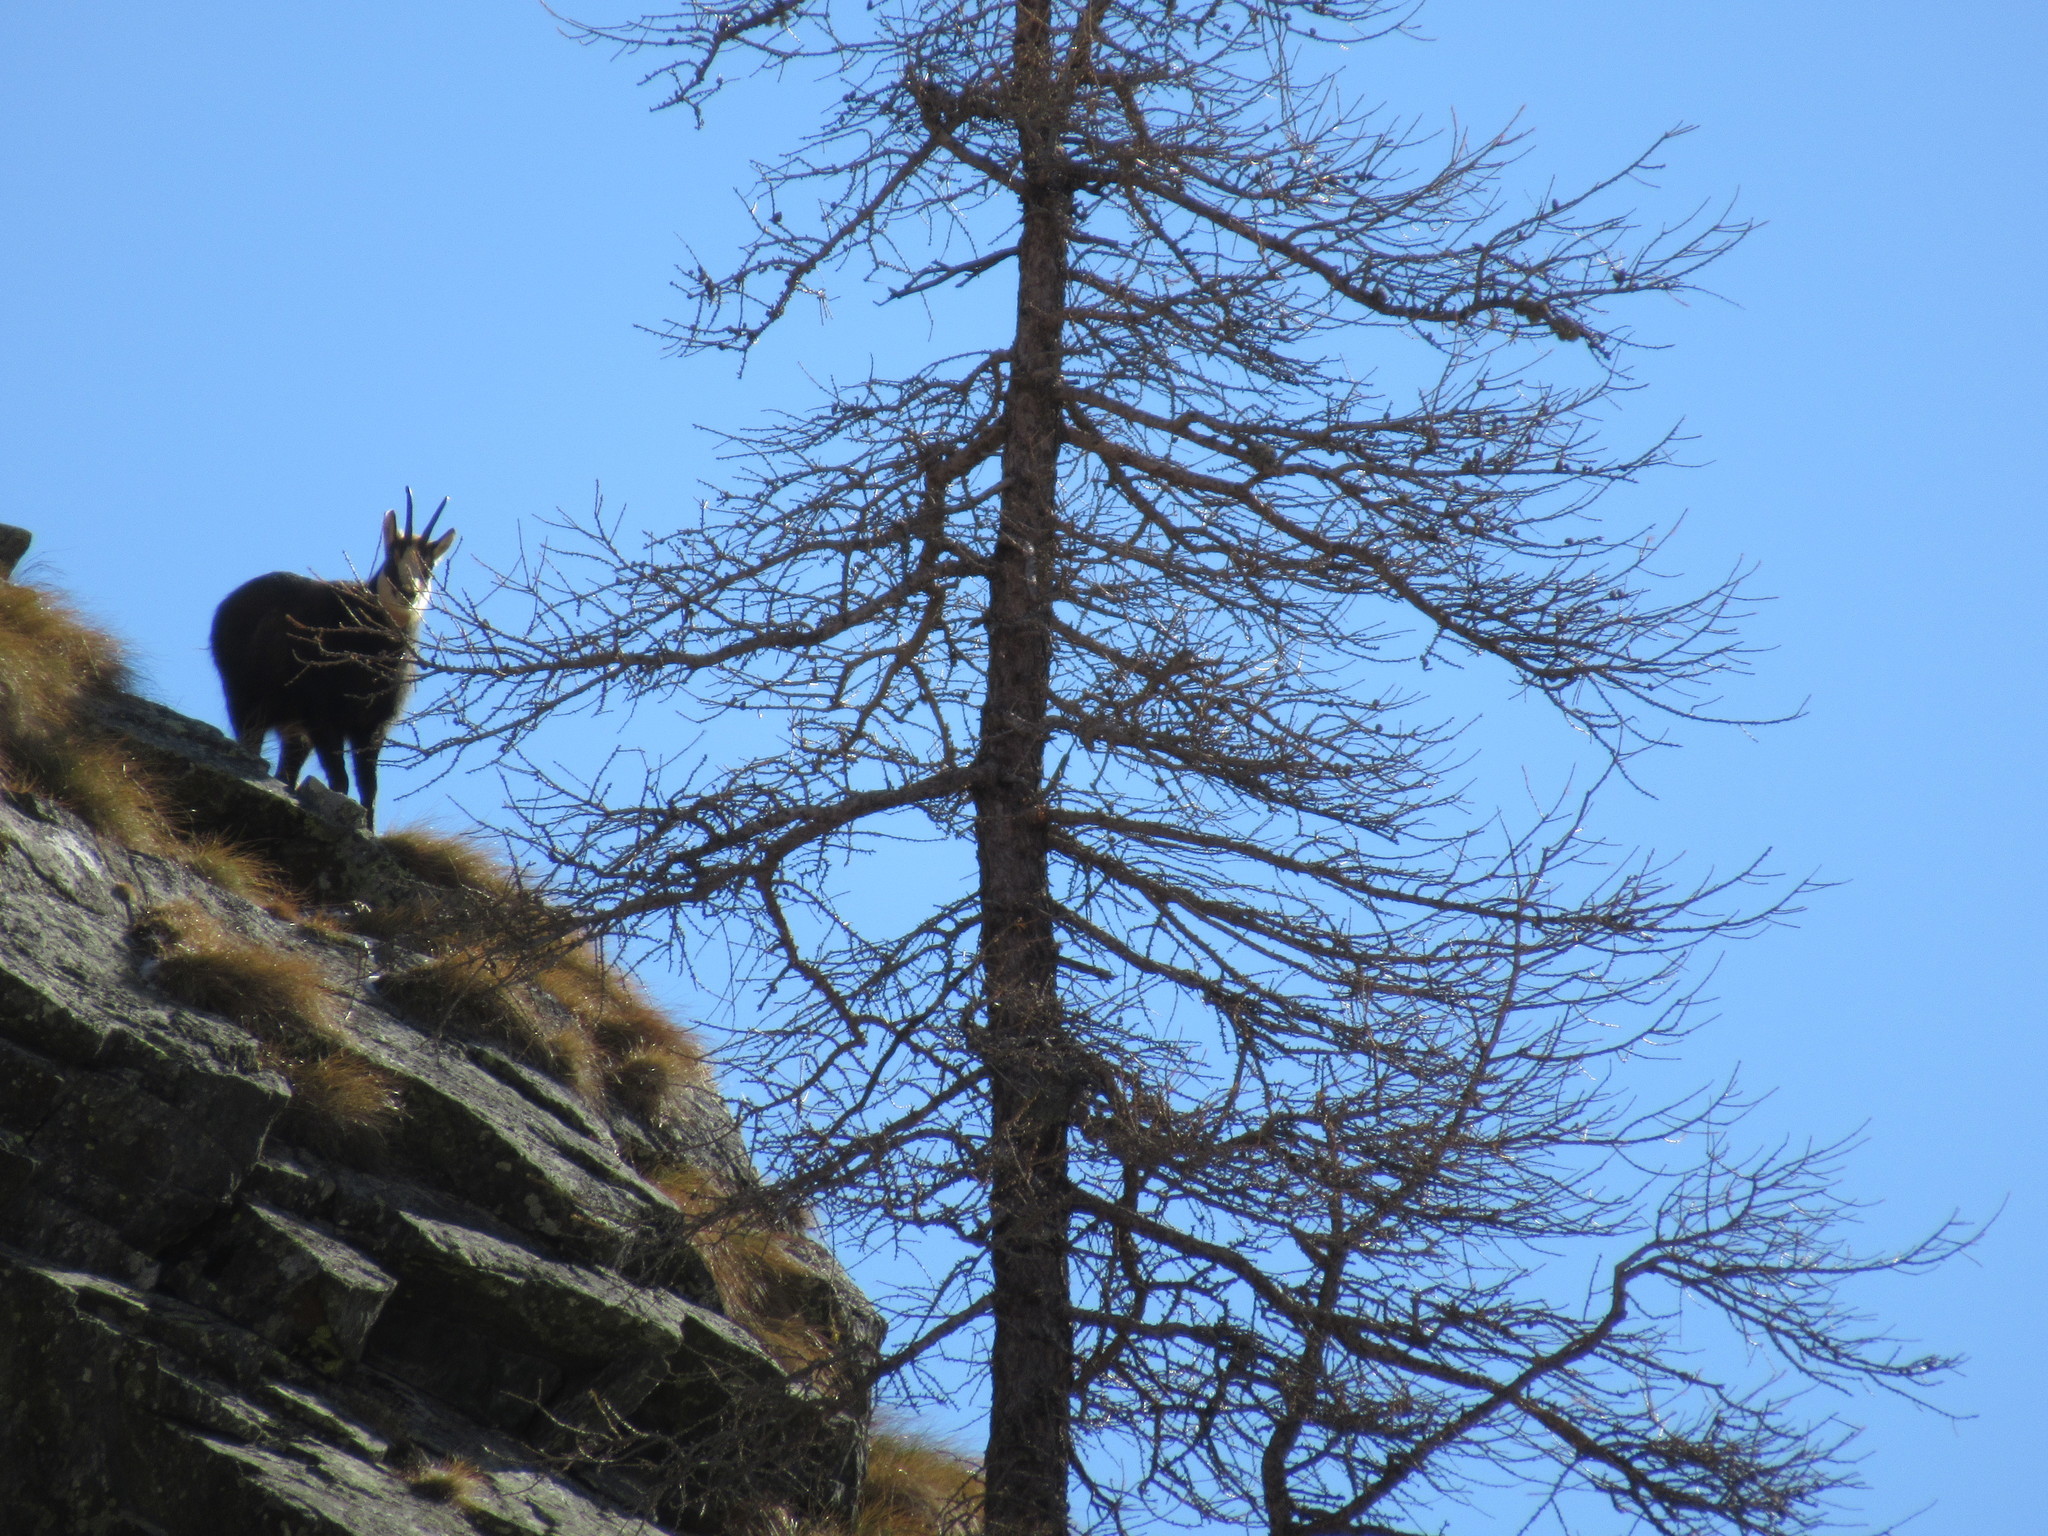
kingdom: Animalia
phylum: Chordata
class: Mammalia
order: Artiodactyla
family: Bovidae
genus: Rupicapra
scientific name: Rupicapra rupicapra
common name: Chamois
